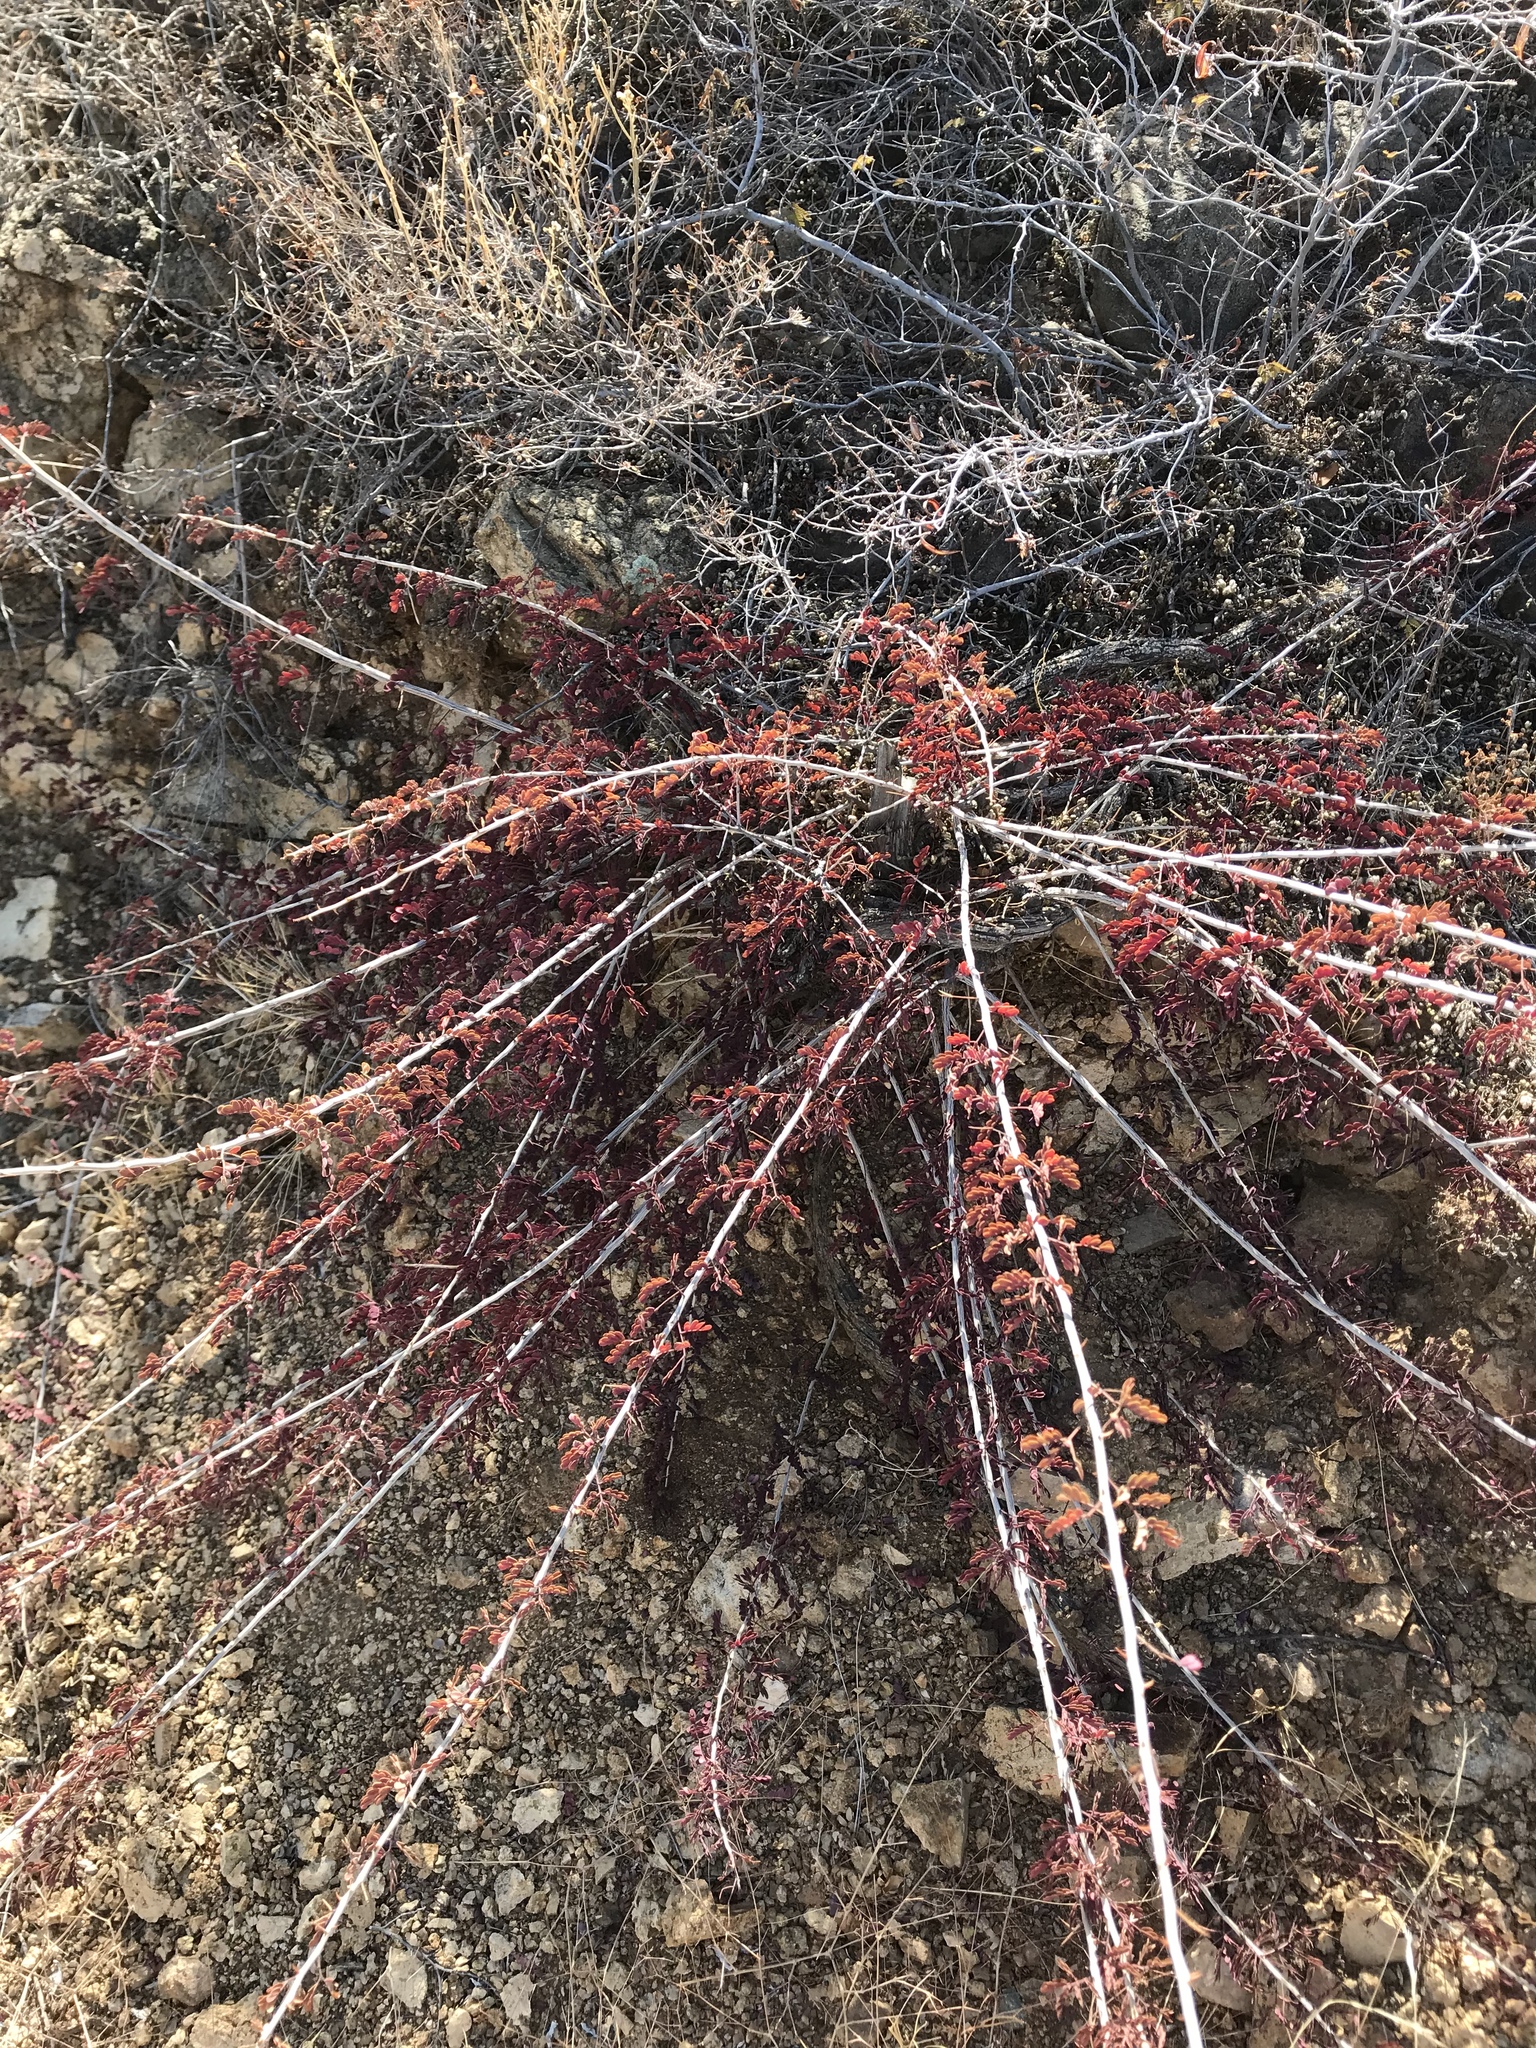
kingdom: Plantae
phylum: Tracheophyta
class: Magnoliopsida
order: Fabales
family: Fabaceae
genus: Senegalia
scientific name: Senegalia greggii
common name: Texas-mimosa
